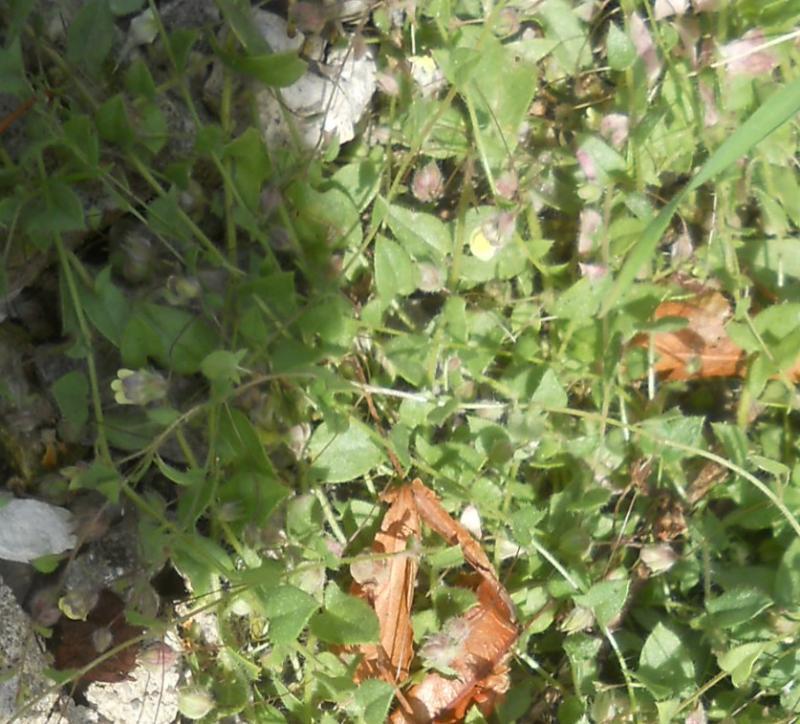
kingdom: Plantae
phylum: Tracheophyta
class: Magnoliopsida
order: Lamiales
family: Plantaginaceae
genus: Kickxia
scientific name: Kickxia elatine
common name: Sharp-leaved fluellen
